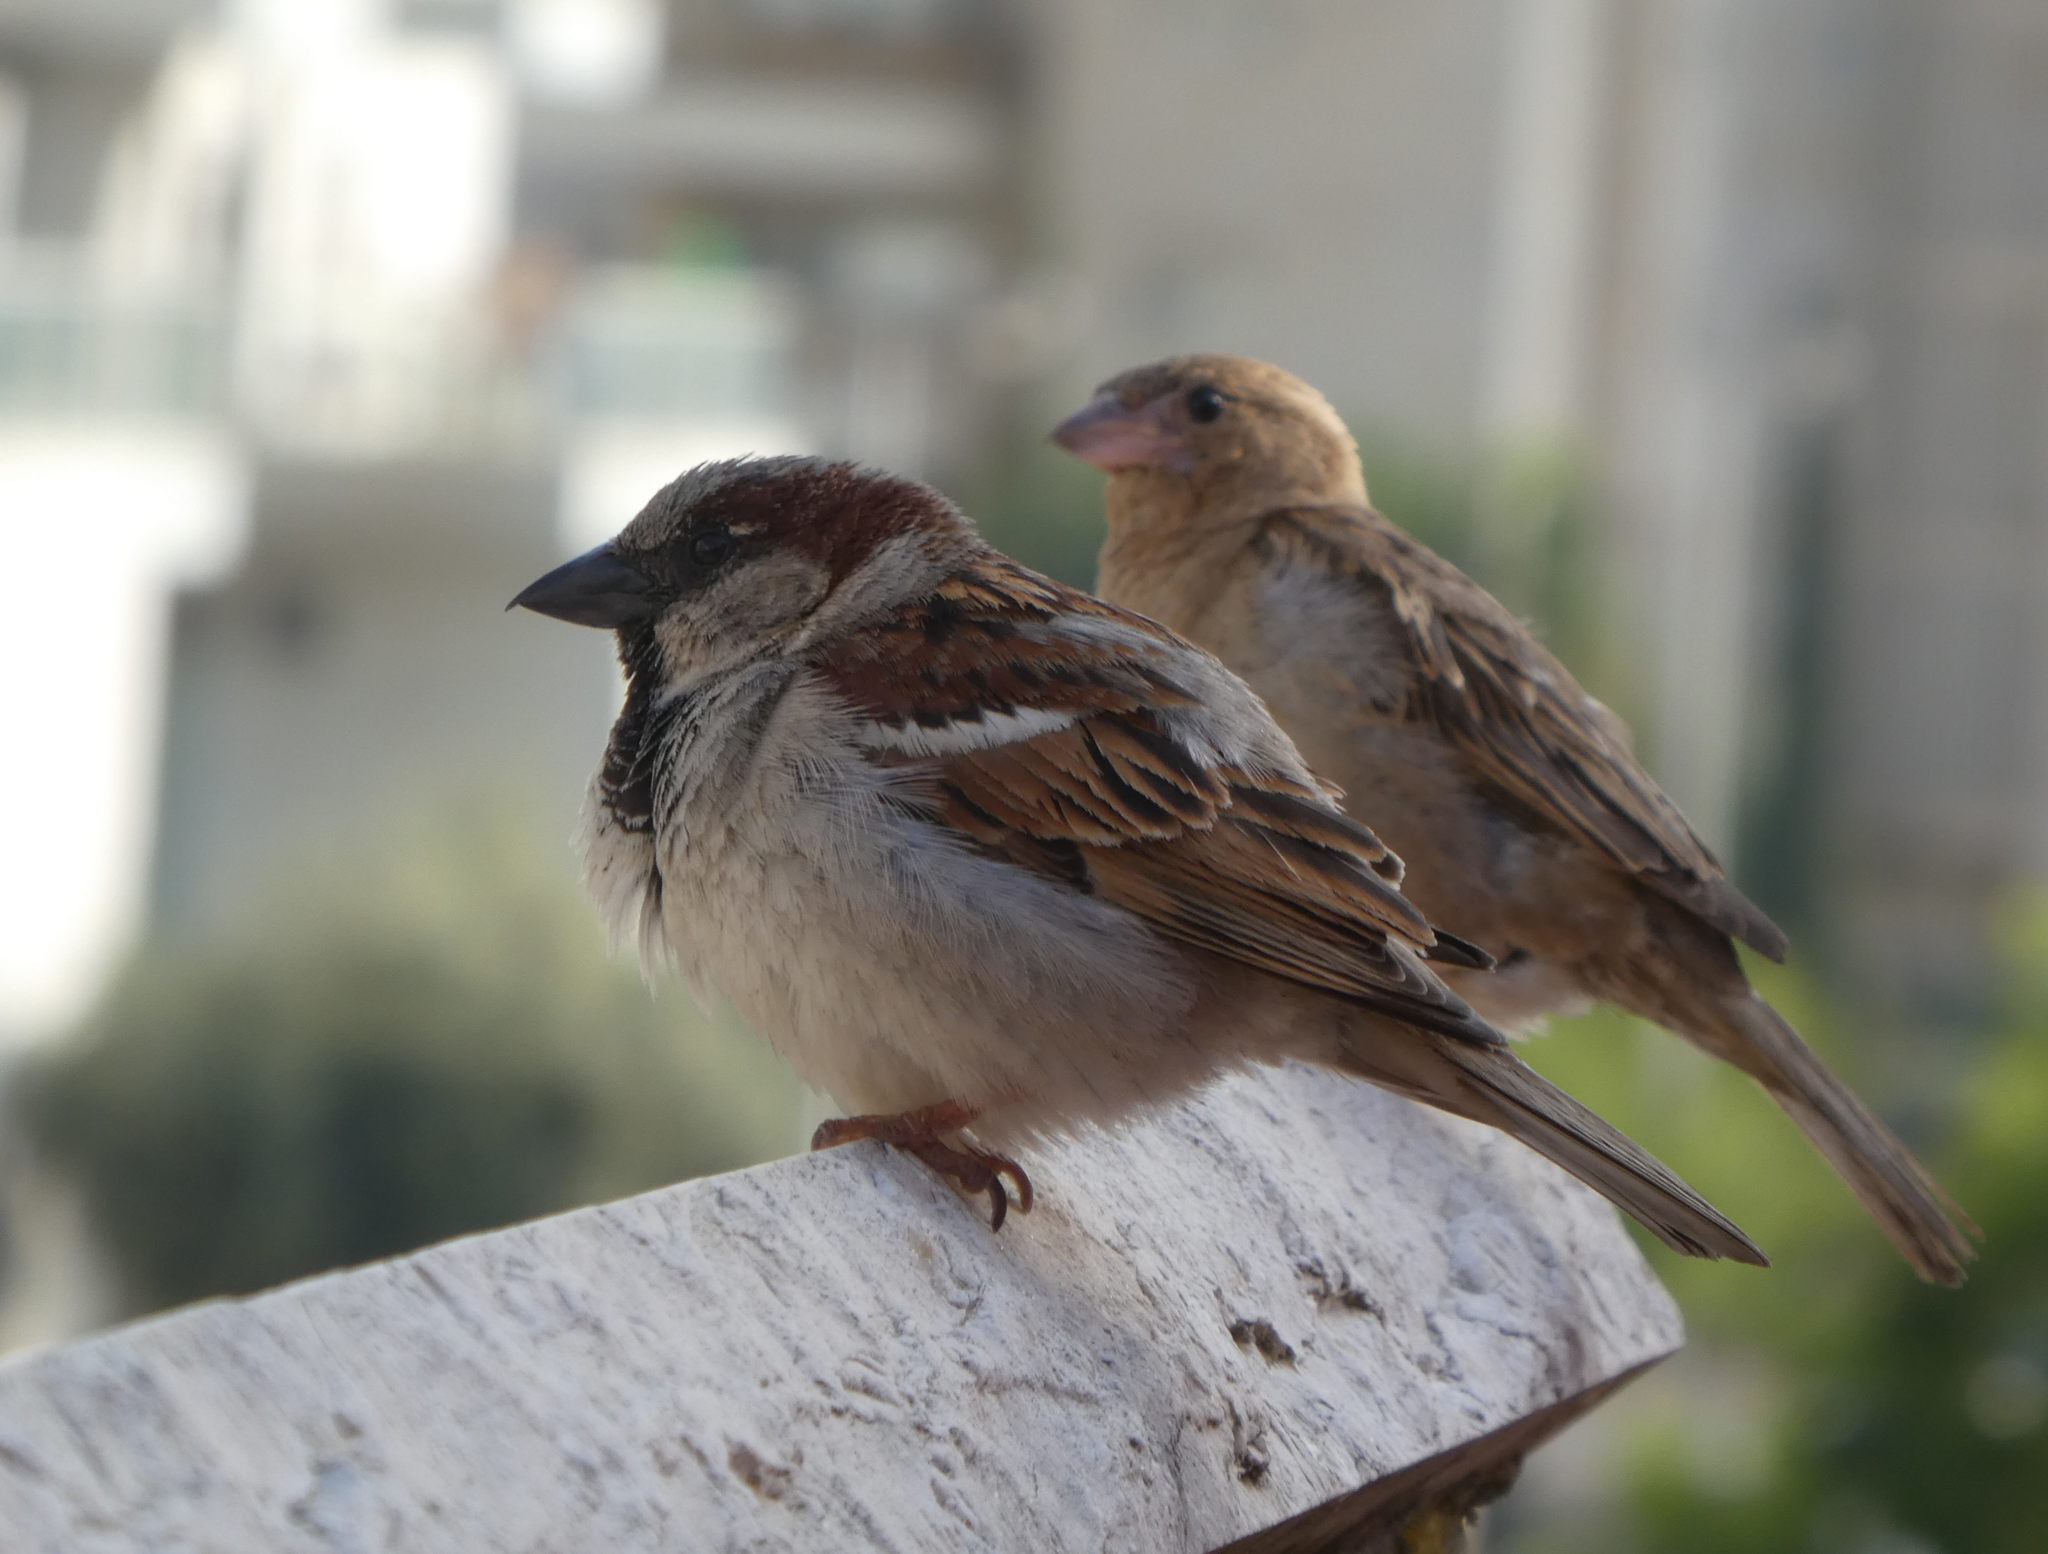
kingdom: Animalia
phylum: Chordata
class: Aves
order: Passeriformes
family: Passeridae
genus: Passer
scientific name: Passer domesticus
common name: House sparrow
